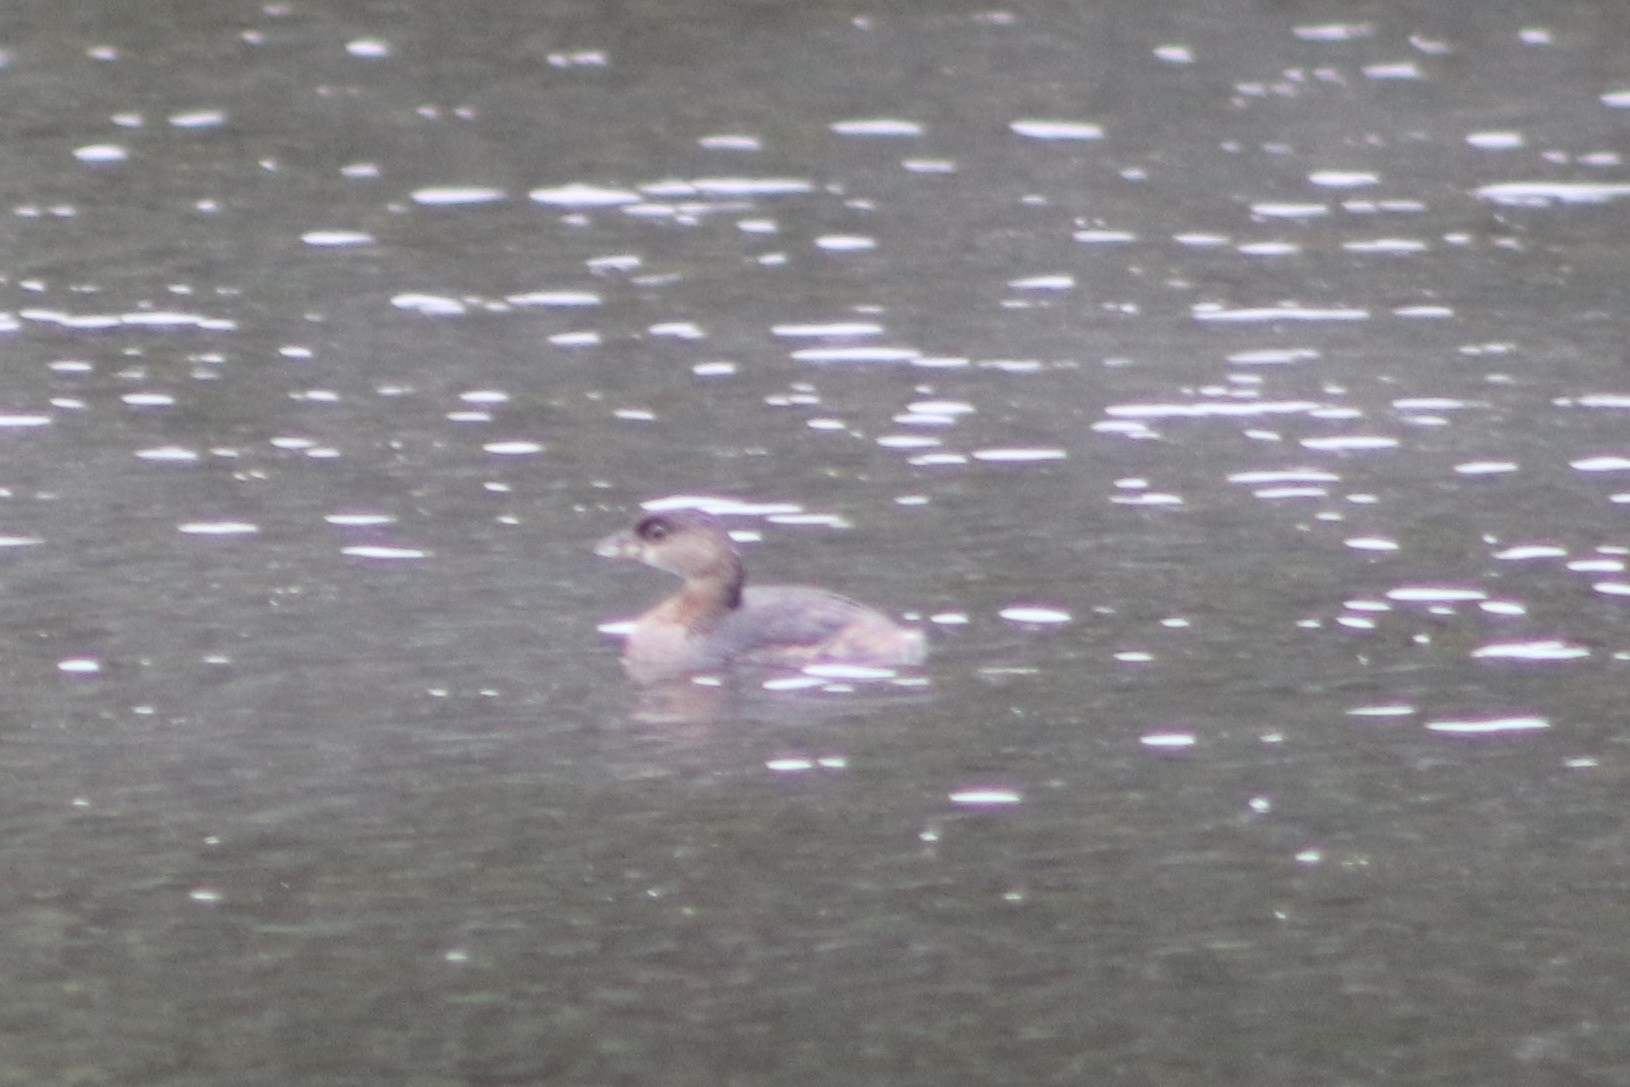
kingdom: Animalia
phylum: Chordata
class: Aves
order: Podicipediformes
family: Podicipedidae
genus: Podilymbus
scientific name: Podilymbus podiceps
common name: Pied-billed grebe
